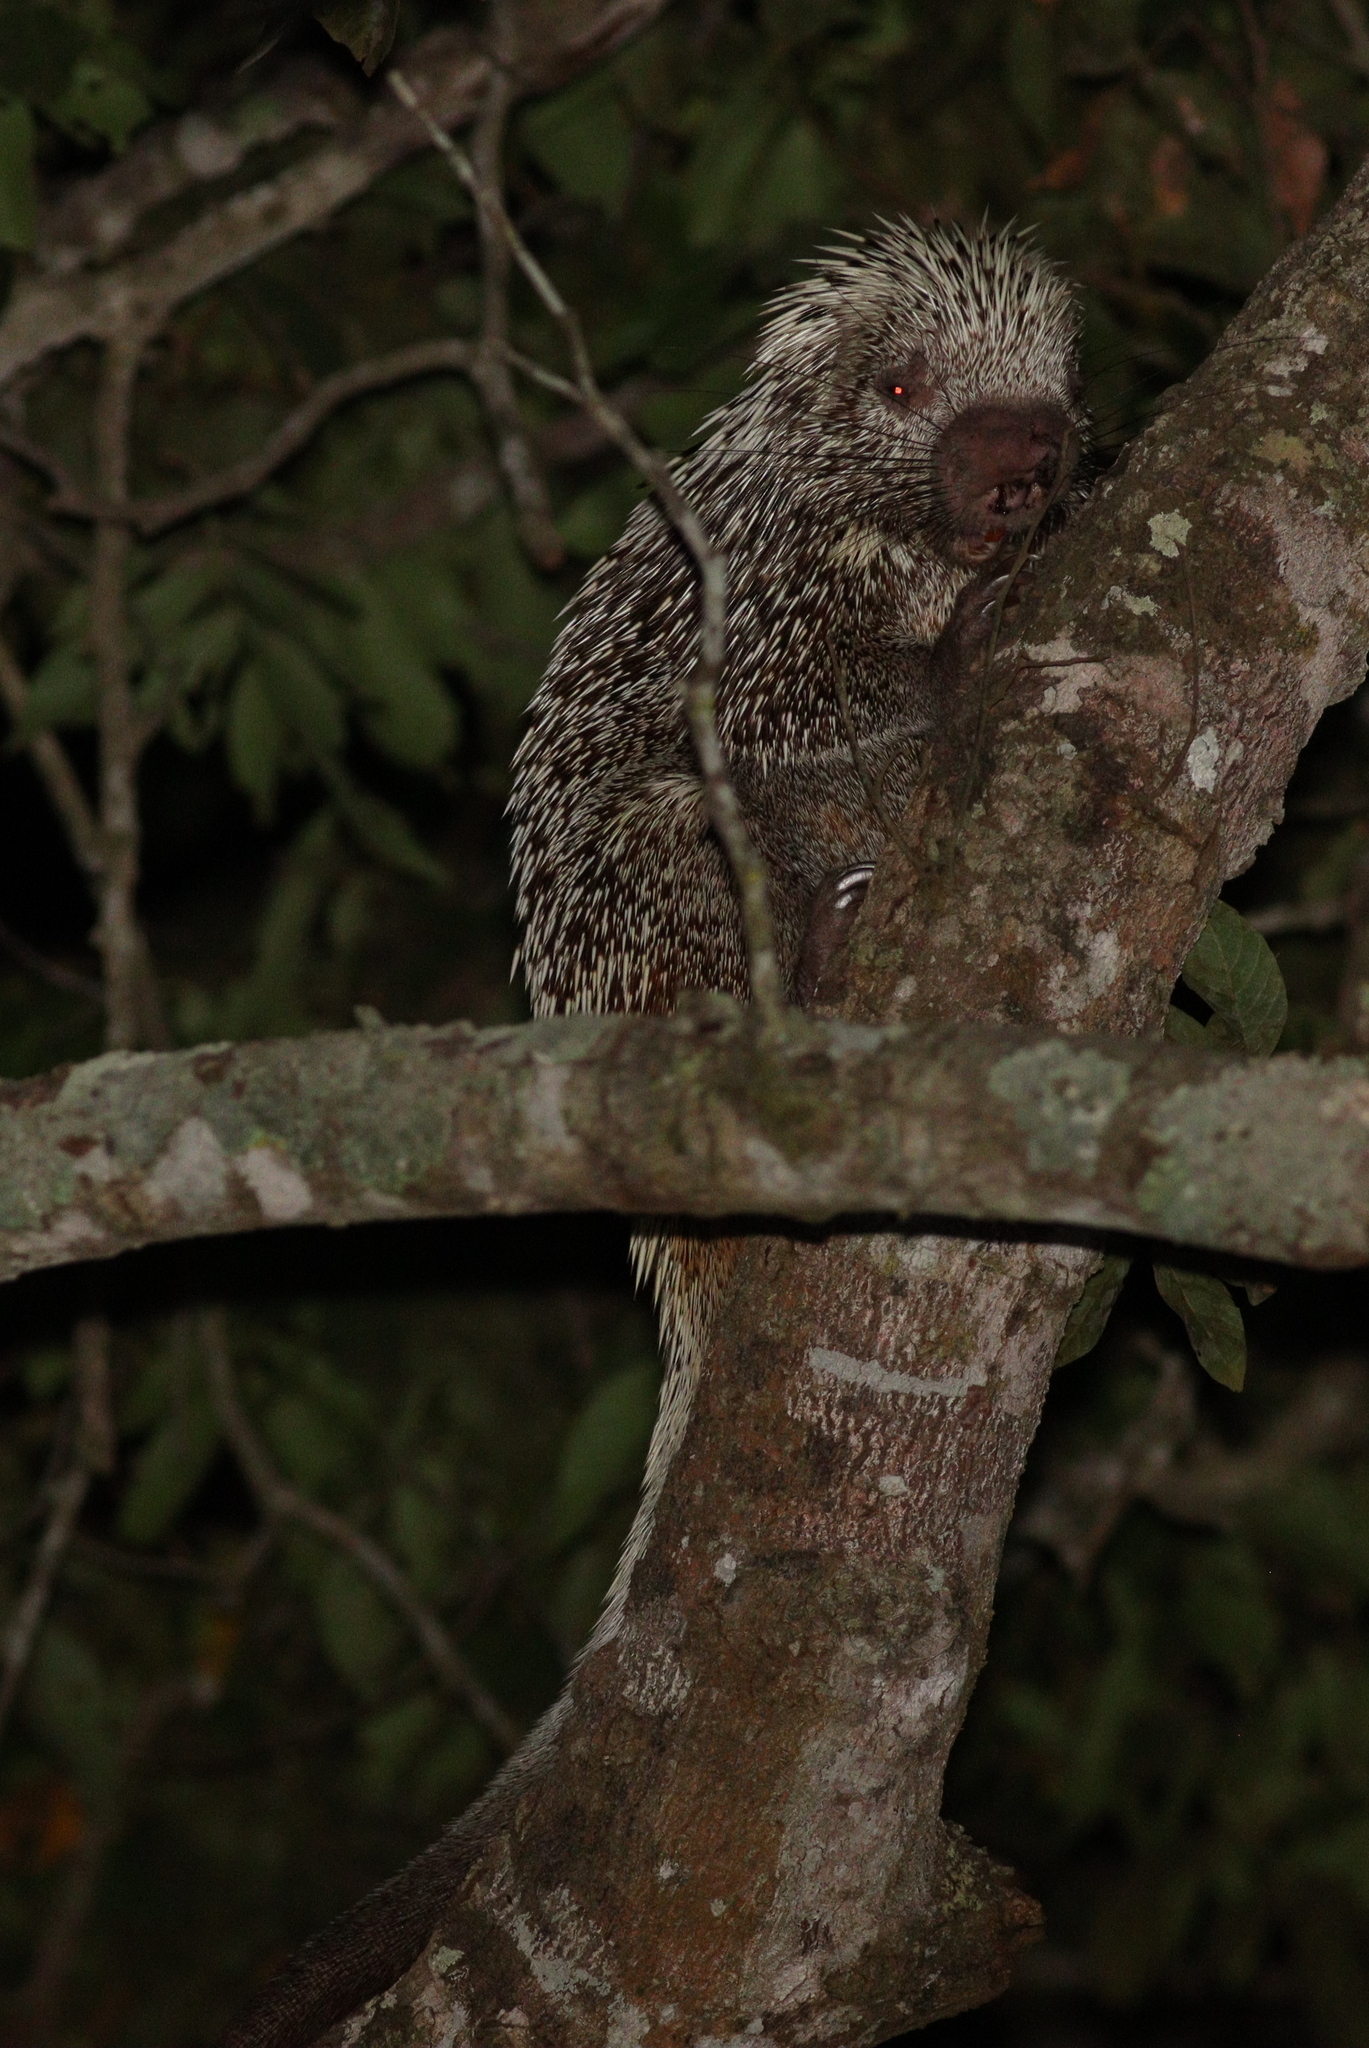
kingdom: Animalia
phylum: Chordata
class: Mammalia
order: Rodentia
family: Erethizontidae
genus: Coendou
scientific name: Coendou longicaudatus
